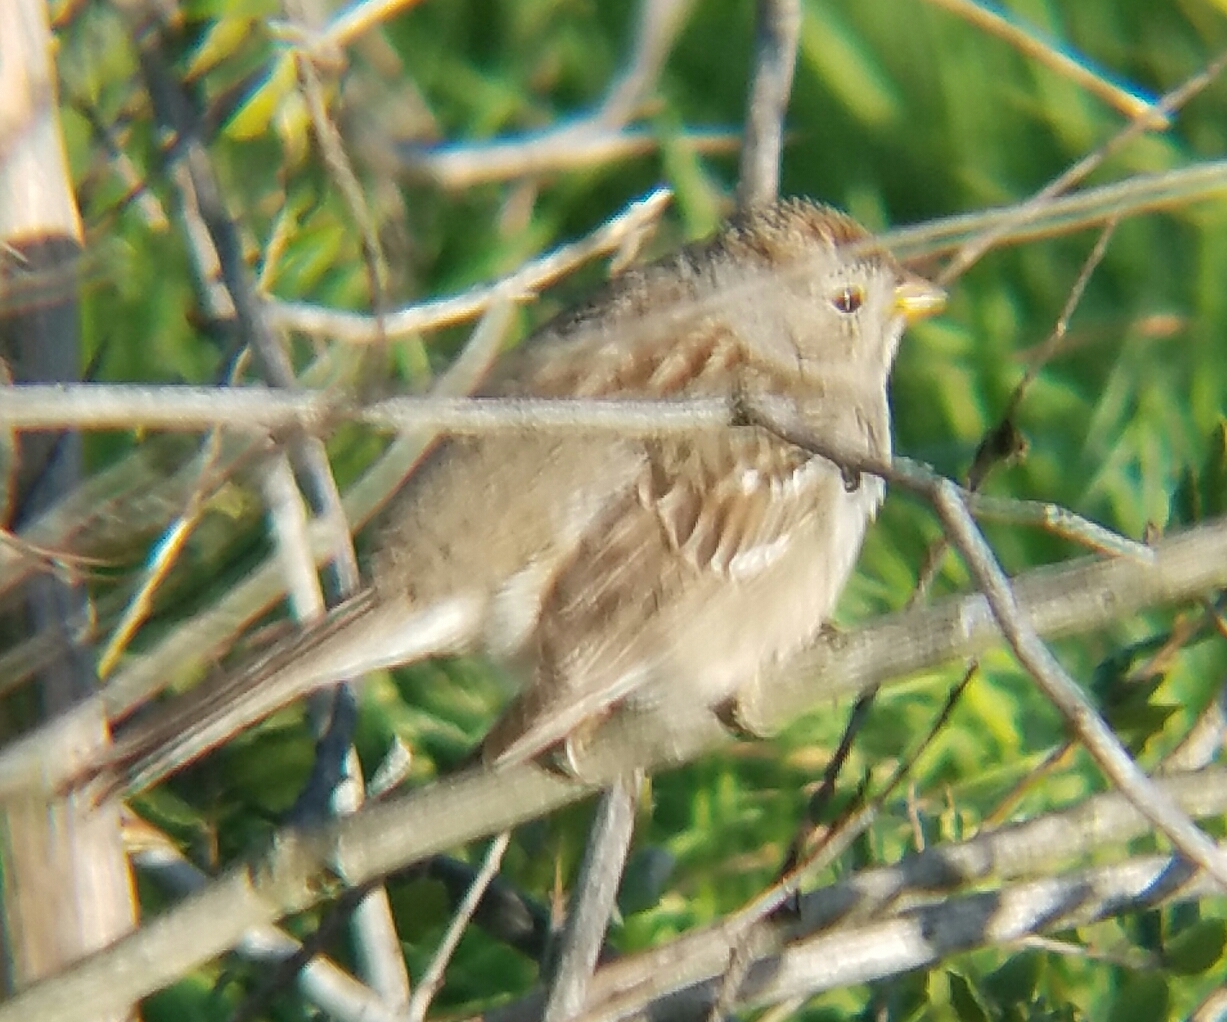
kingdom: Animalia
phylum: Chordata
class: Aves
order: Passeriformes
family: Passerellidae
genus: Zonotrichia
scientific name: Zonotrichia leucophrys
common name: White-crowned sparrow
